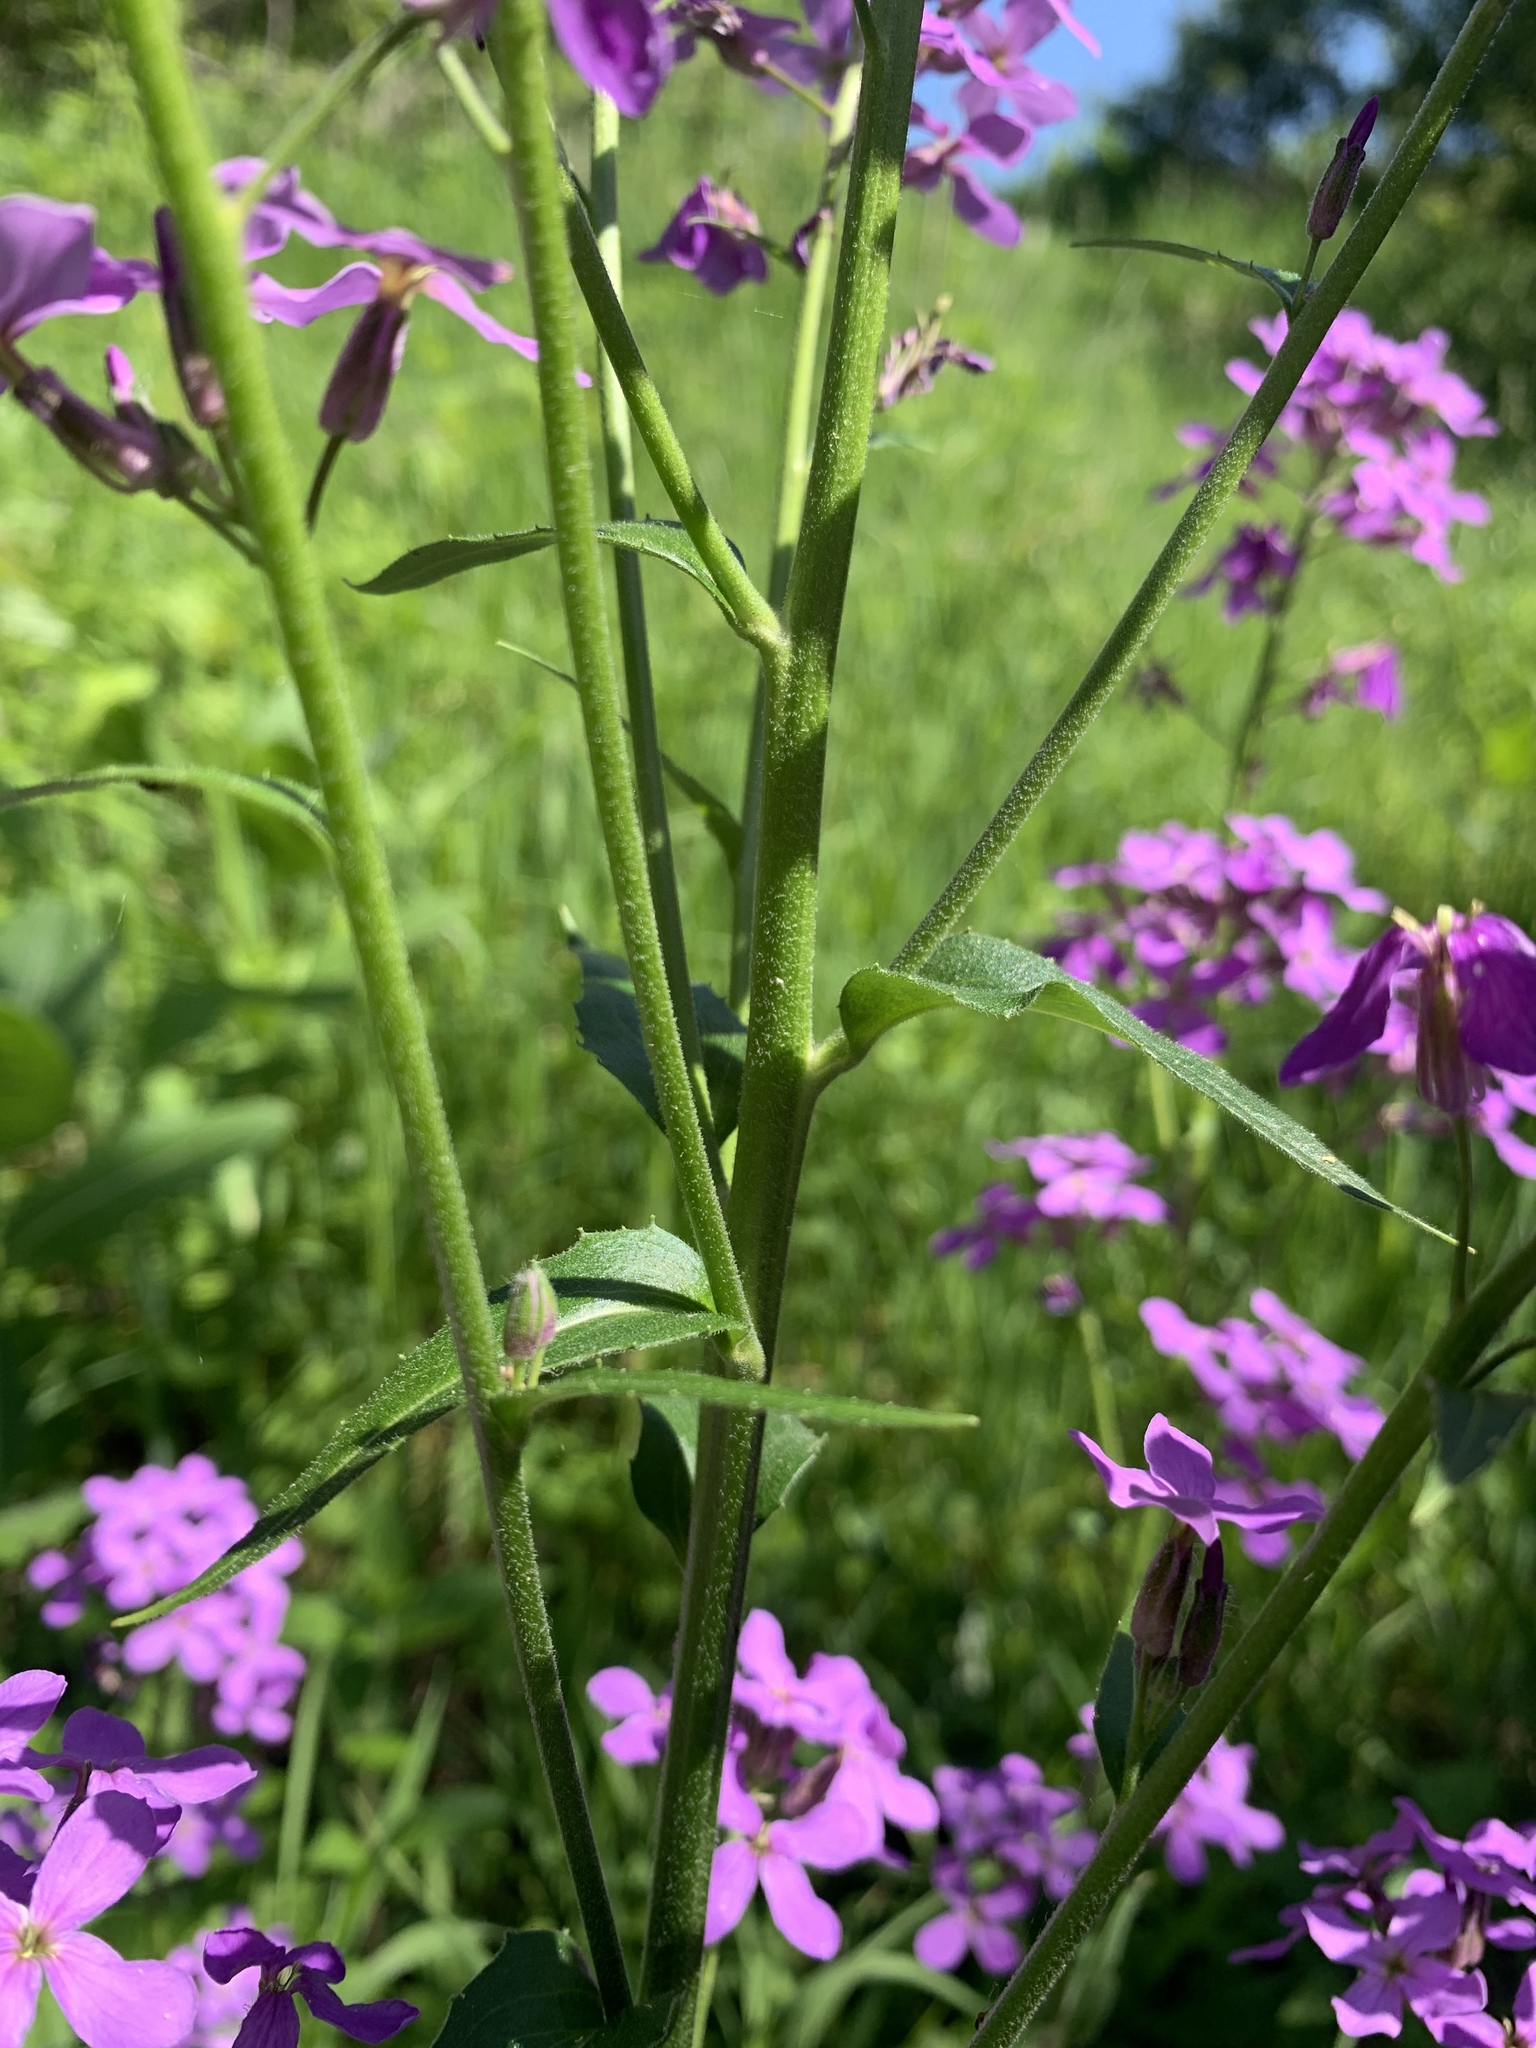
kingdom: Plantae
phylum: Tracheophyta
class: Magnoliopsida
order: Brassicales
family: Brassicaceae
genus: Hesperis
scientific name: Hesperis matronalis
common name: Dame's-violet
